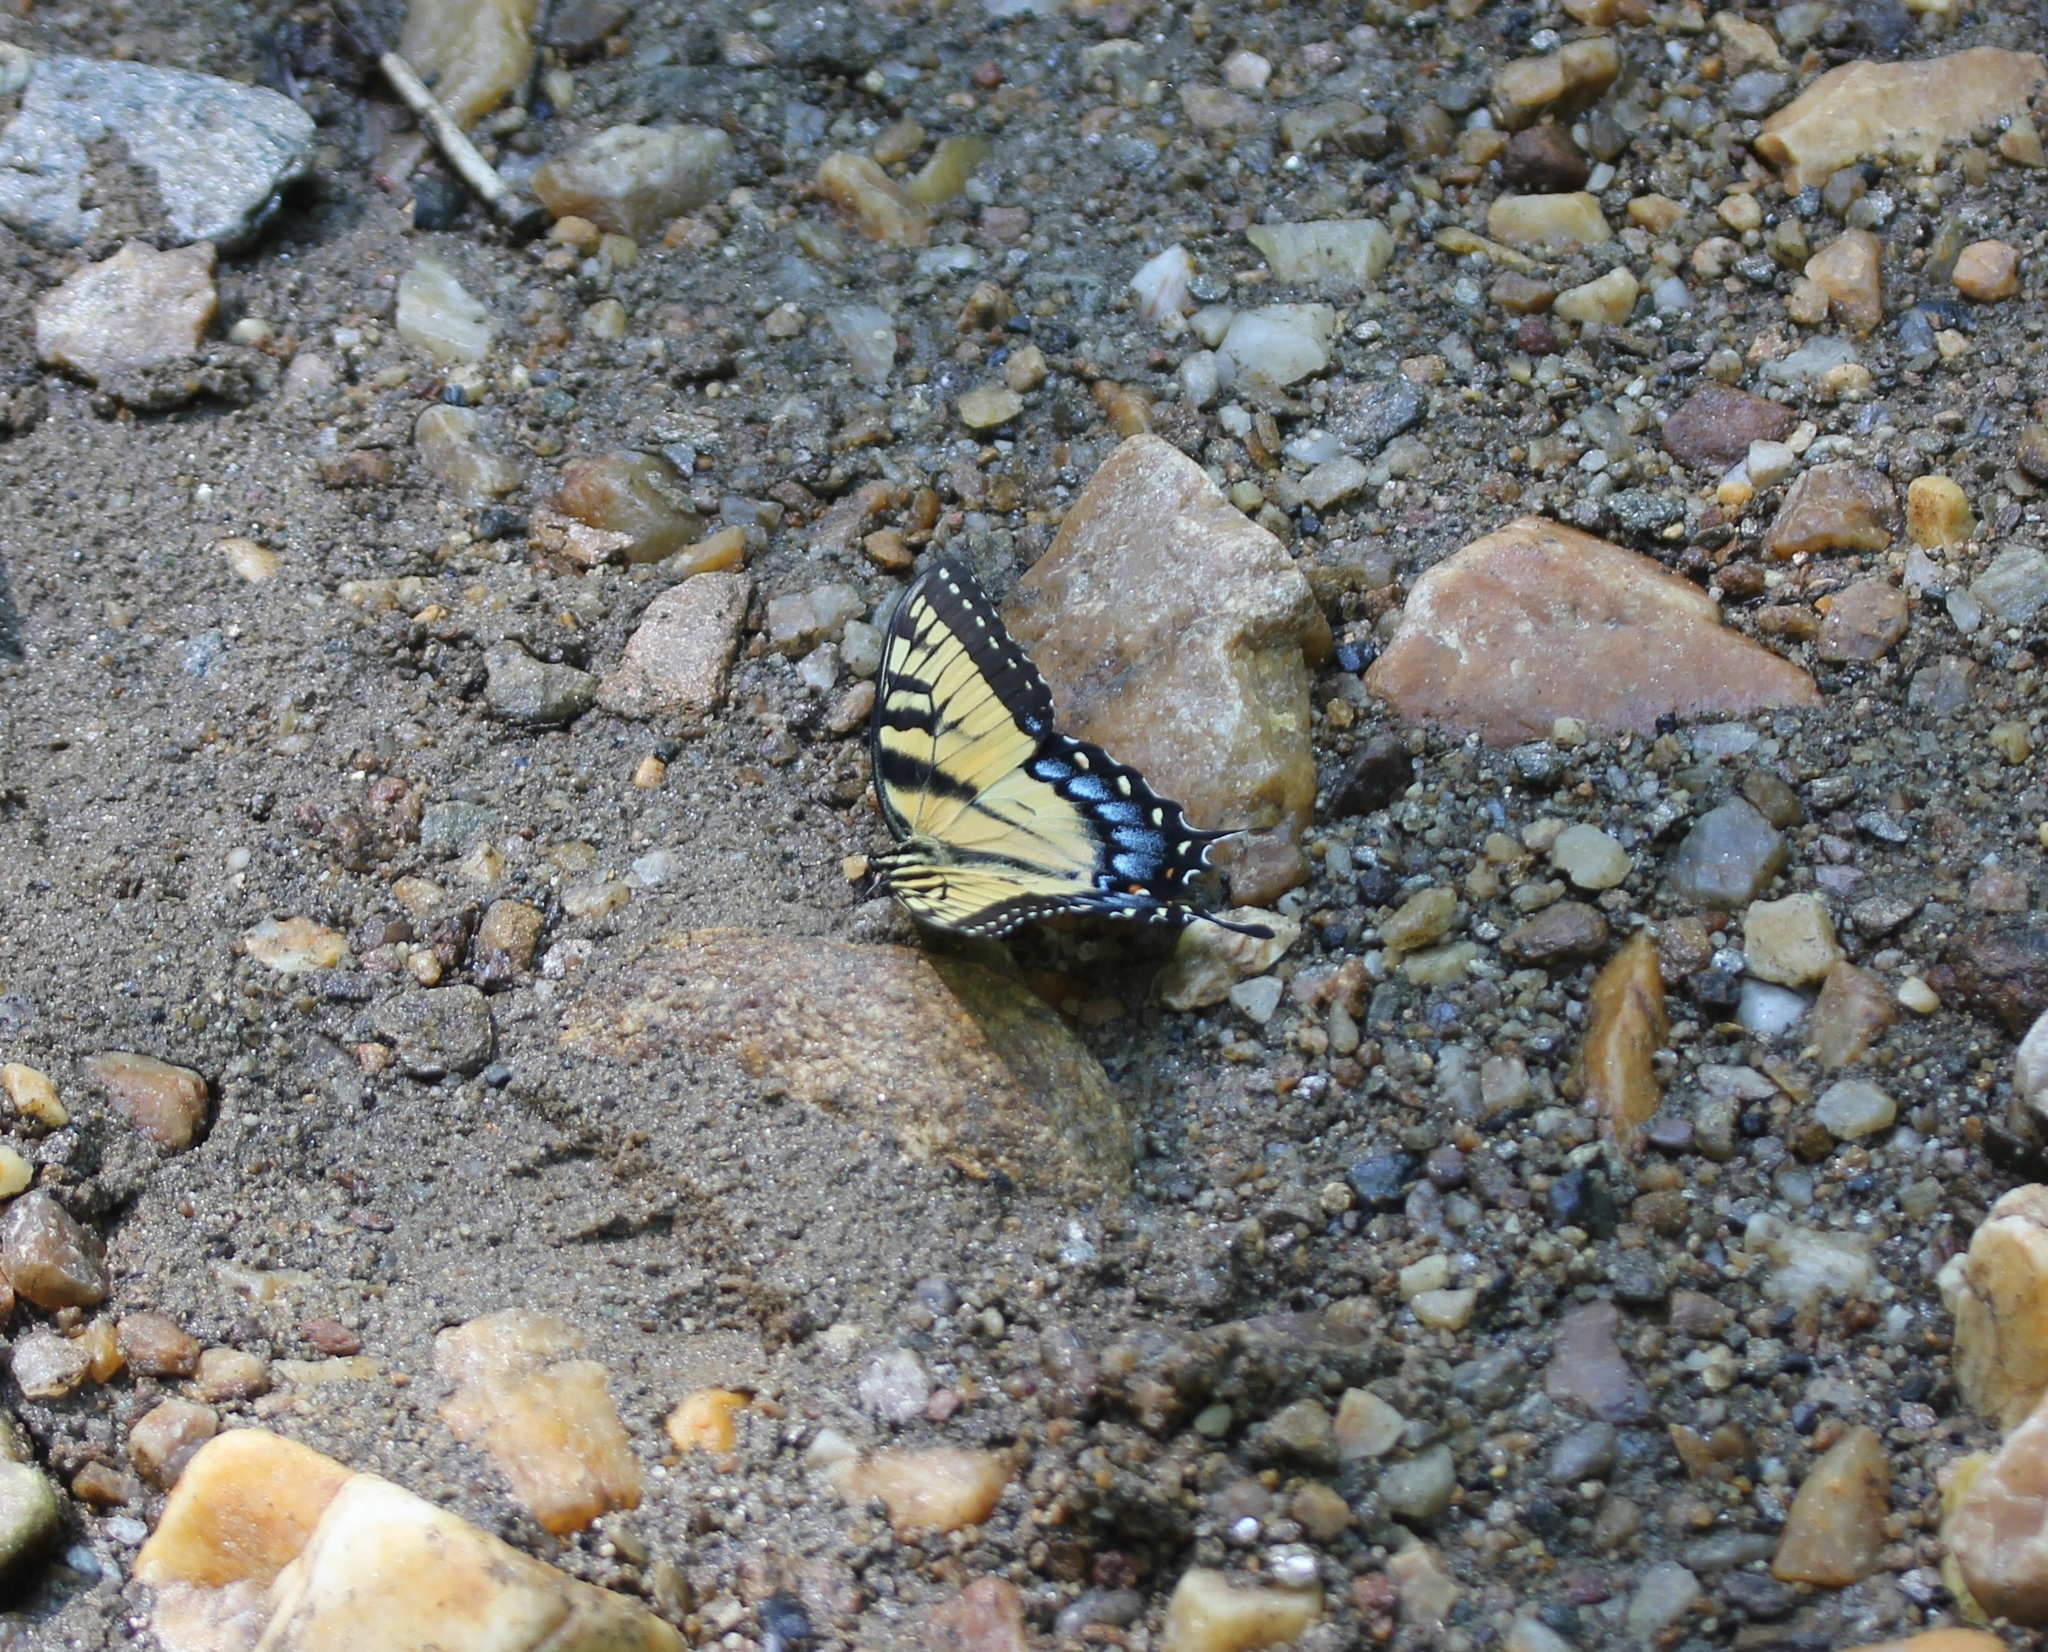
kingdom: Animalia
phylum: Arthropoda
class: Insecta
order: Lepidoptera
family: Papilionidae
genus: Papilio
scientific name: Papilio glaucus
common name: Tiger swallowtail
